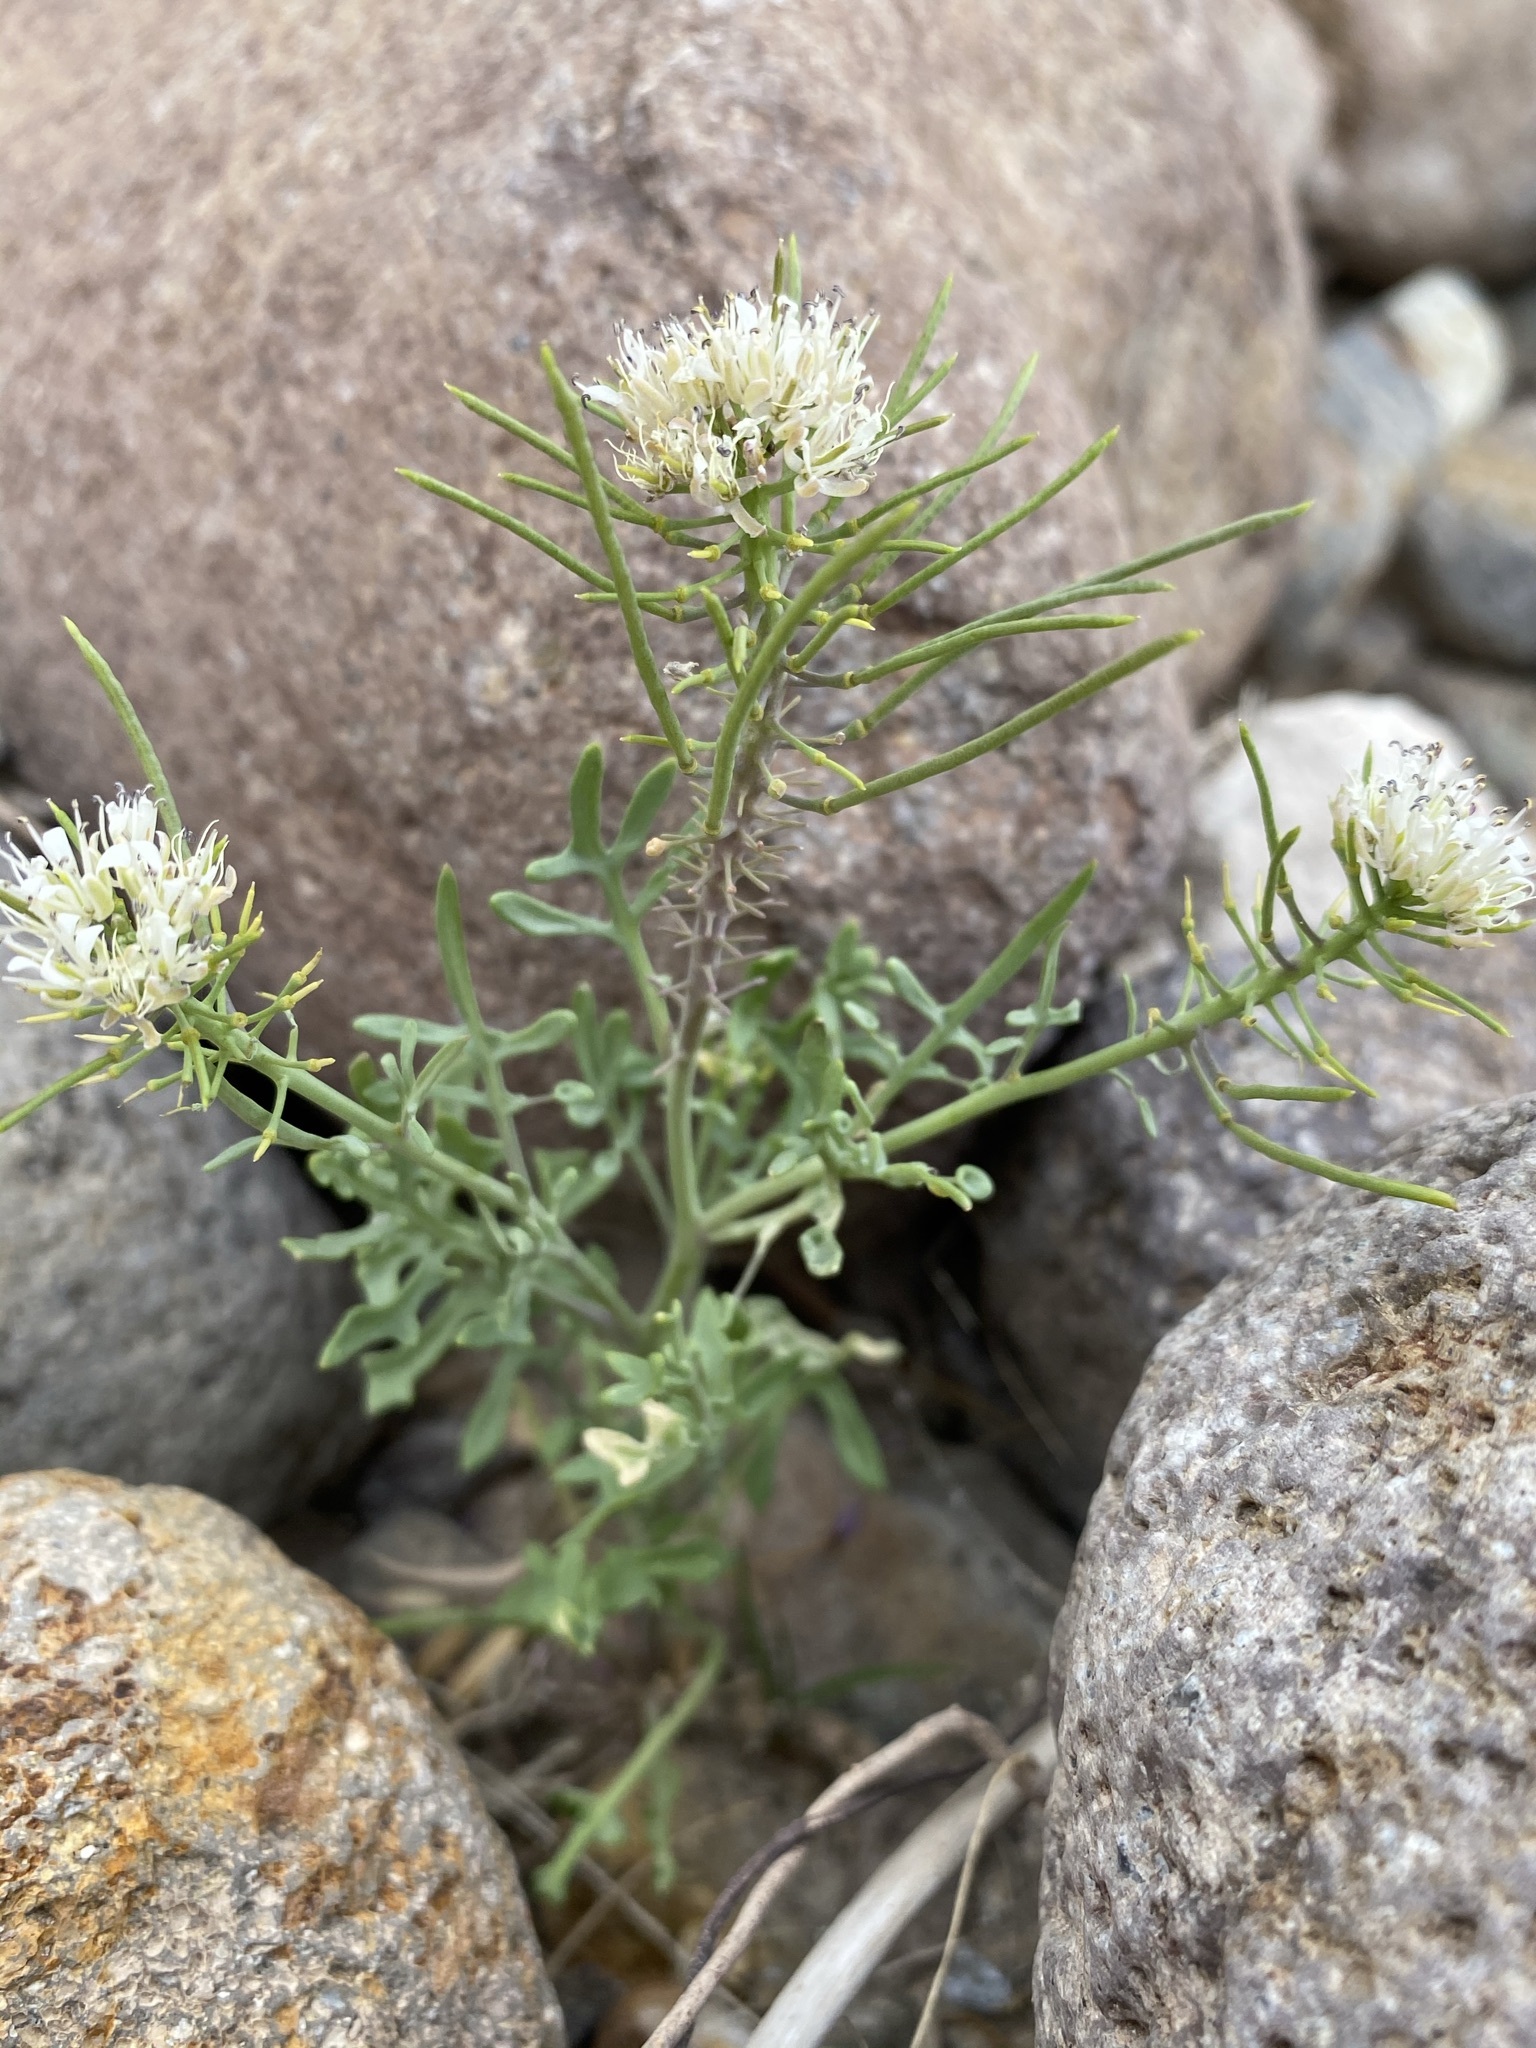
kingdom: Plantae
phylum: Tracheophyta
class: Magnoliopsida
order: Brassicales
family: Brassicaceae
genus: Thelypodium
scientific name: Thelypodium texanum
